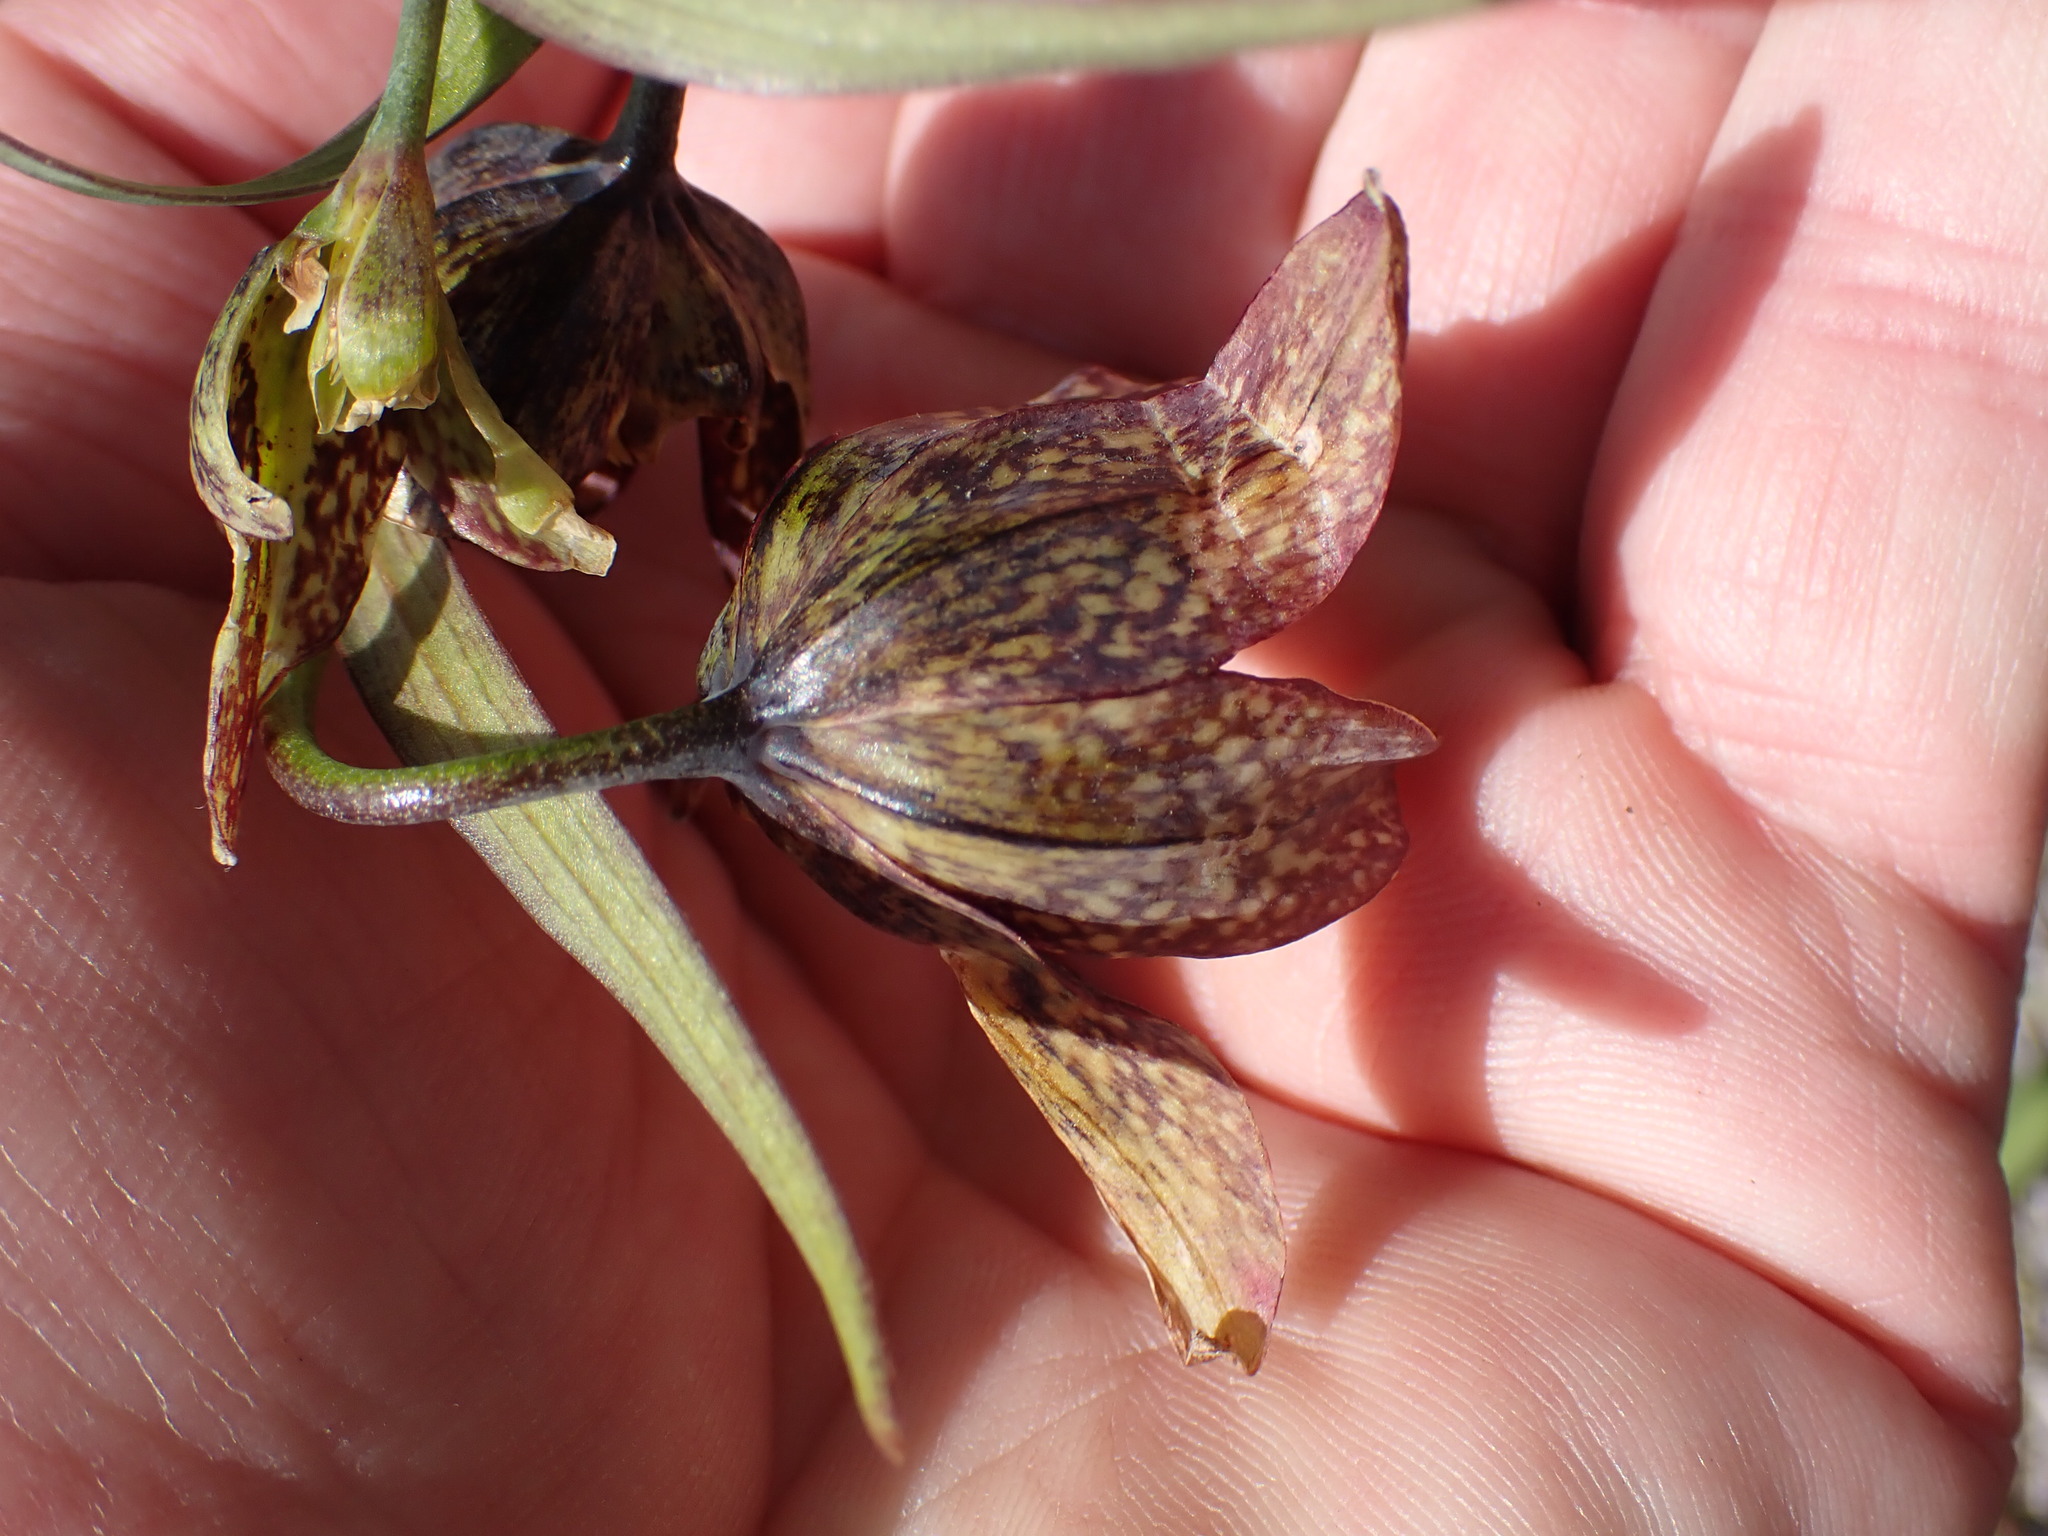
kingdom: Plantae
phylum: Tracheophyta
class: Liliopsida
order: Liliales
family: Liliaceae
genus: Fritillaria
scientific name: Fritillaria affinis
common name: Ojai fritillary
